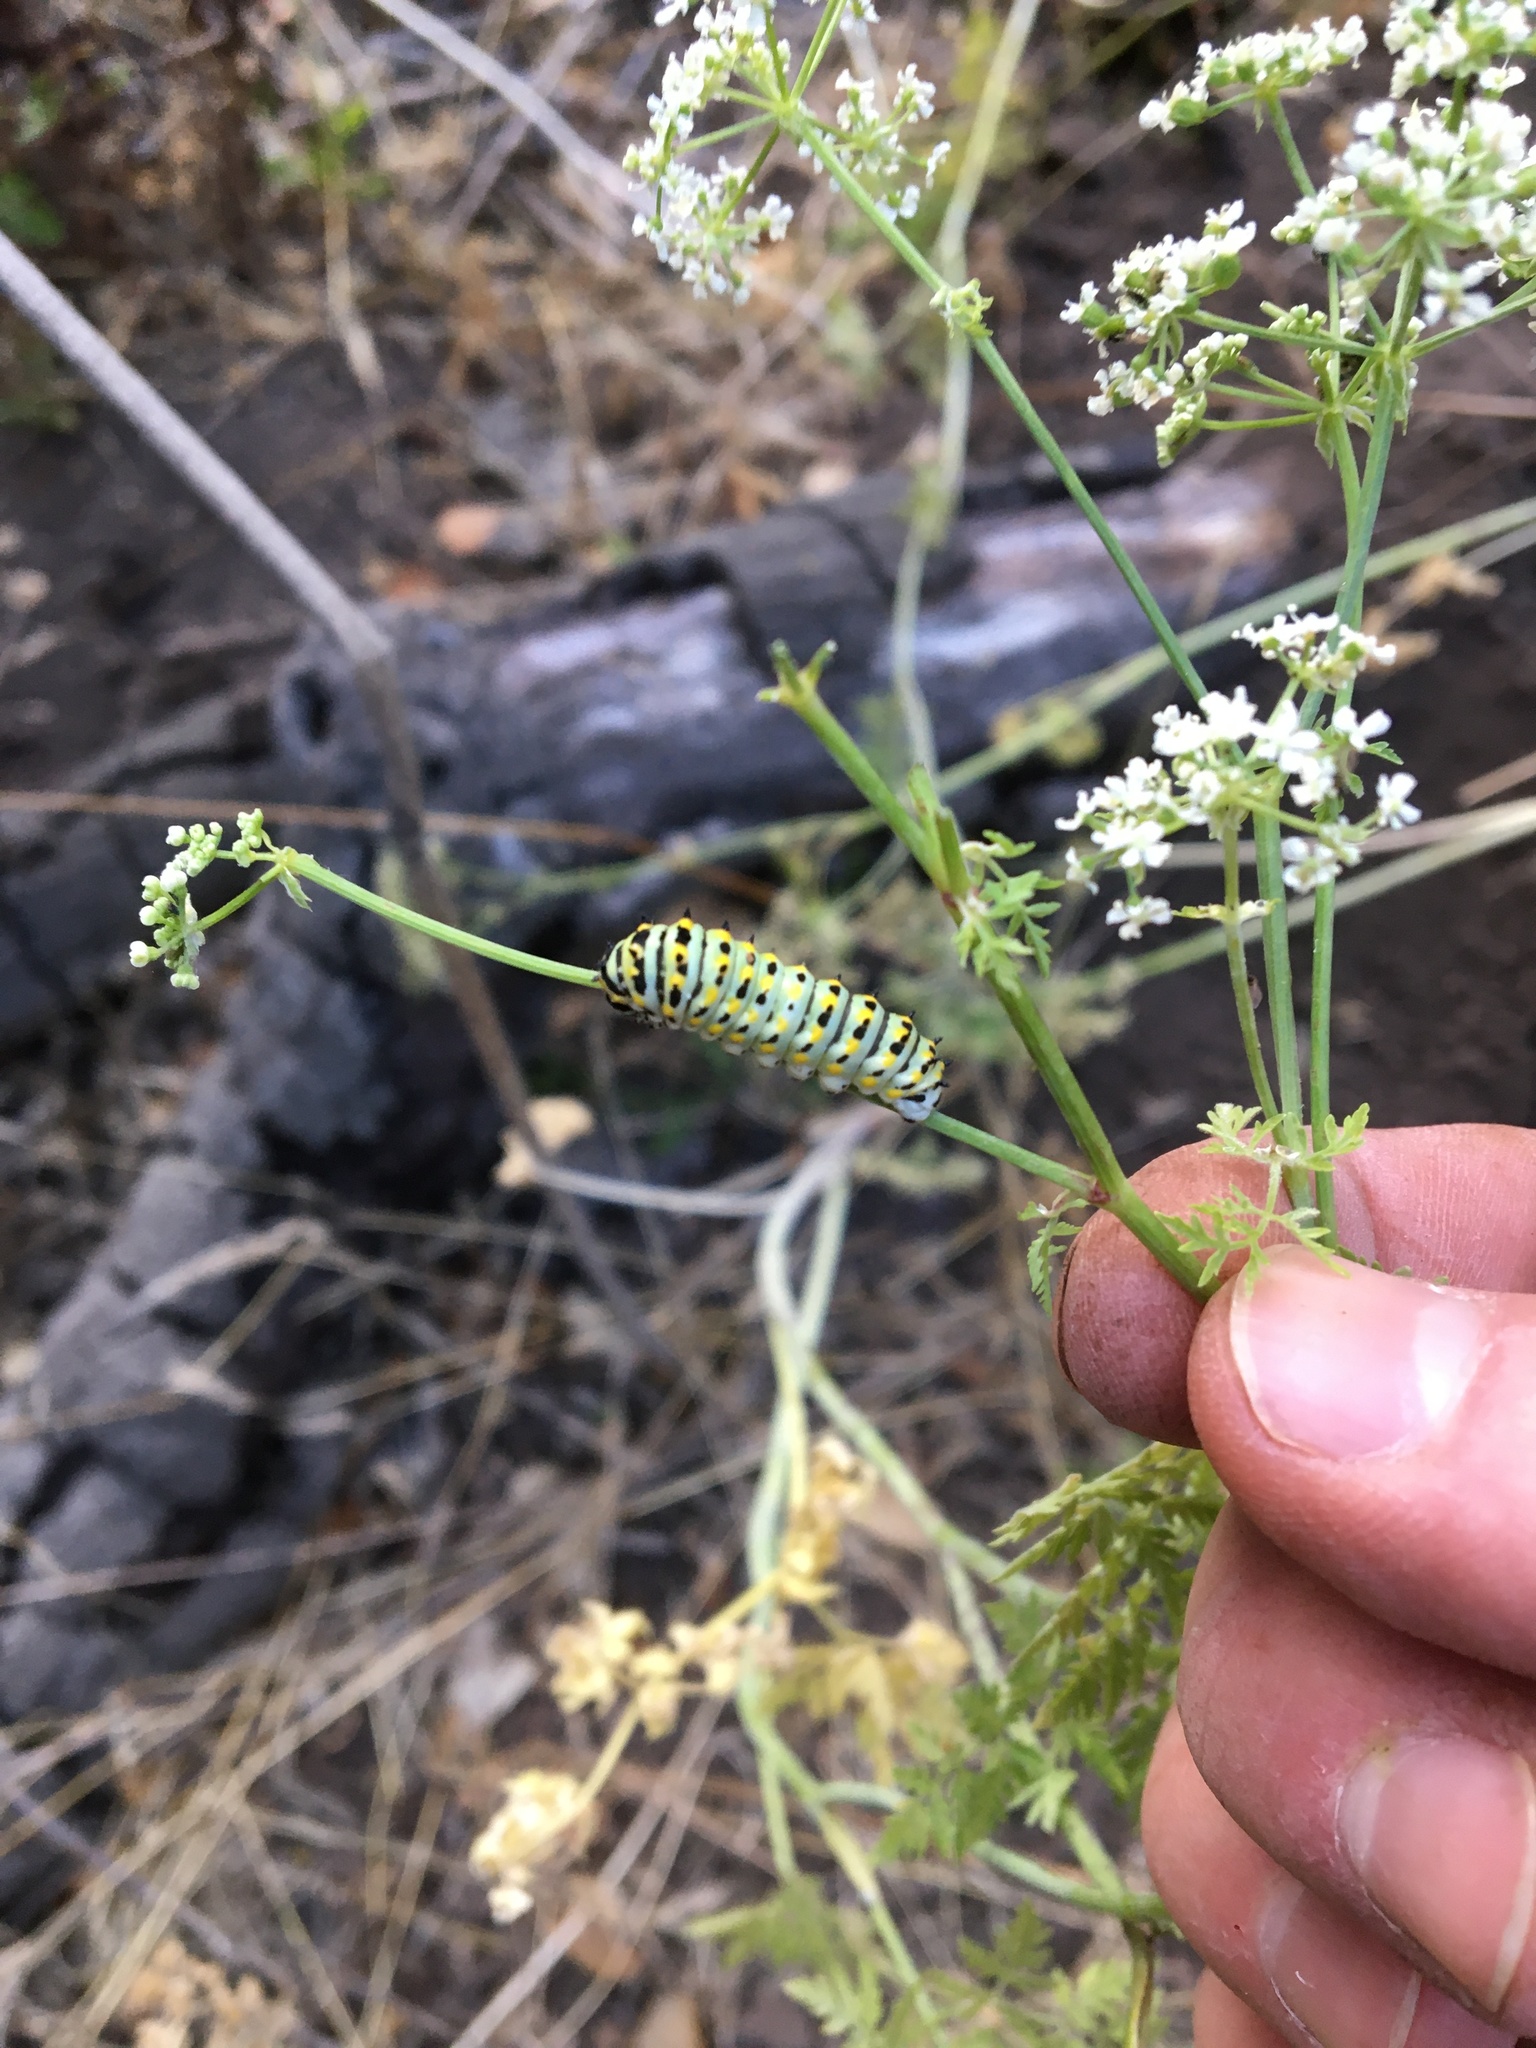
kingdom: Animalia
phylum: Arthropoda
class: Insecta
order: Lepidoptera
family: Papilionidae
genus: Papilio
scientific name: Papilio zelicaon
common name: Anise swallowtail
